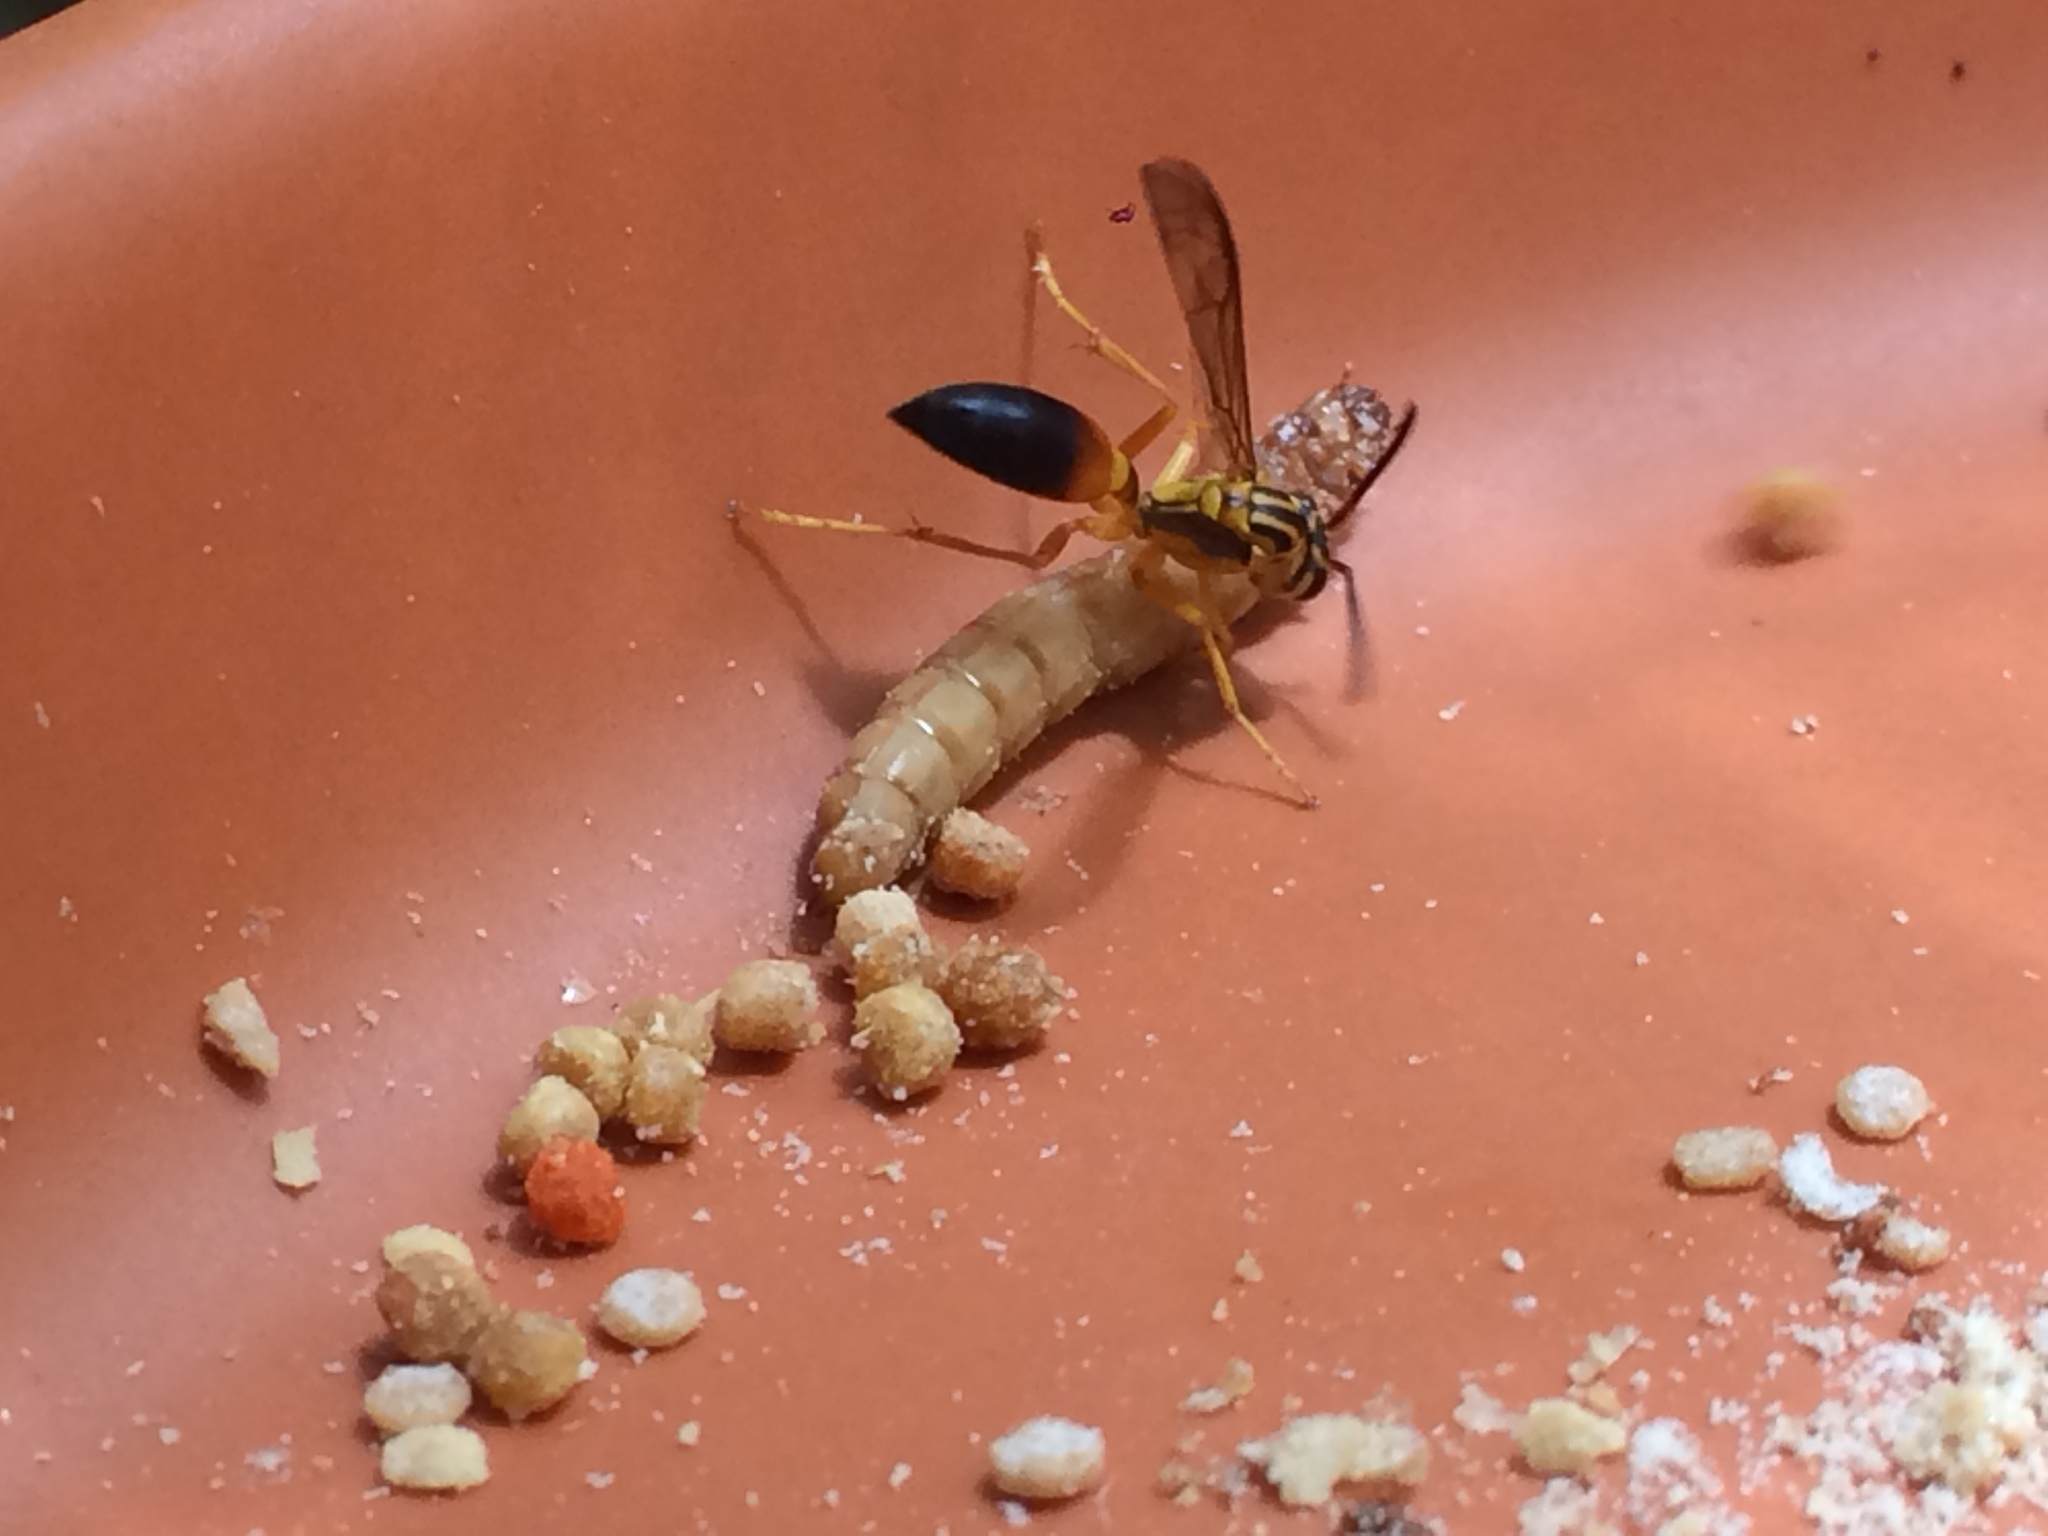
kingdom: Animalia
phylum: Arthropoda
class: Insecta
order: Hymenoptera
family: Vespidae
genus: Agelaia
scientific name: Agelaia pallipes
